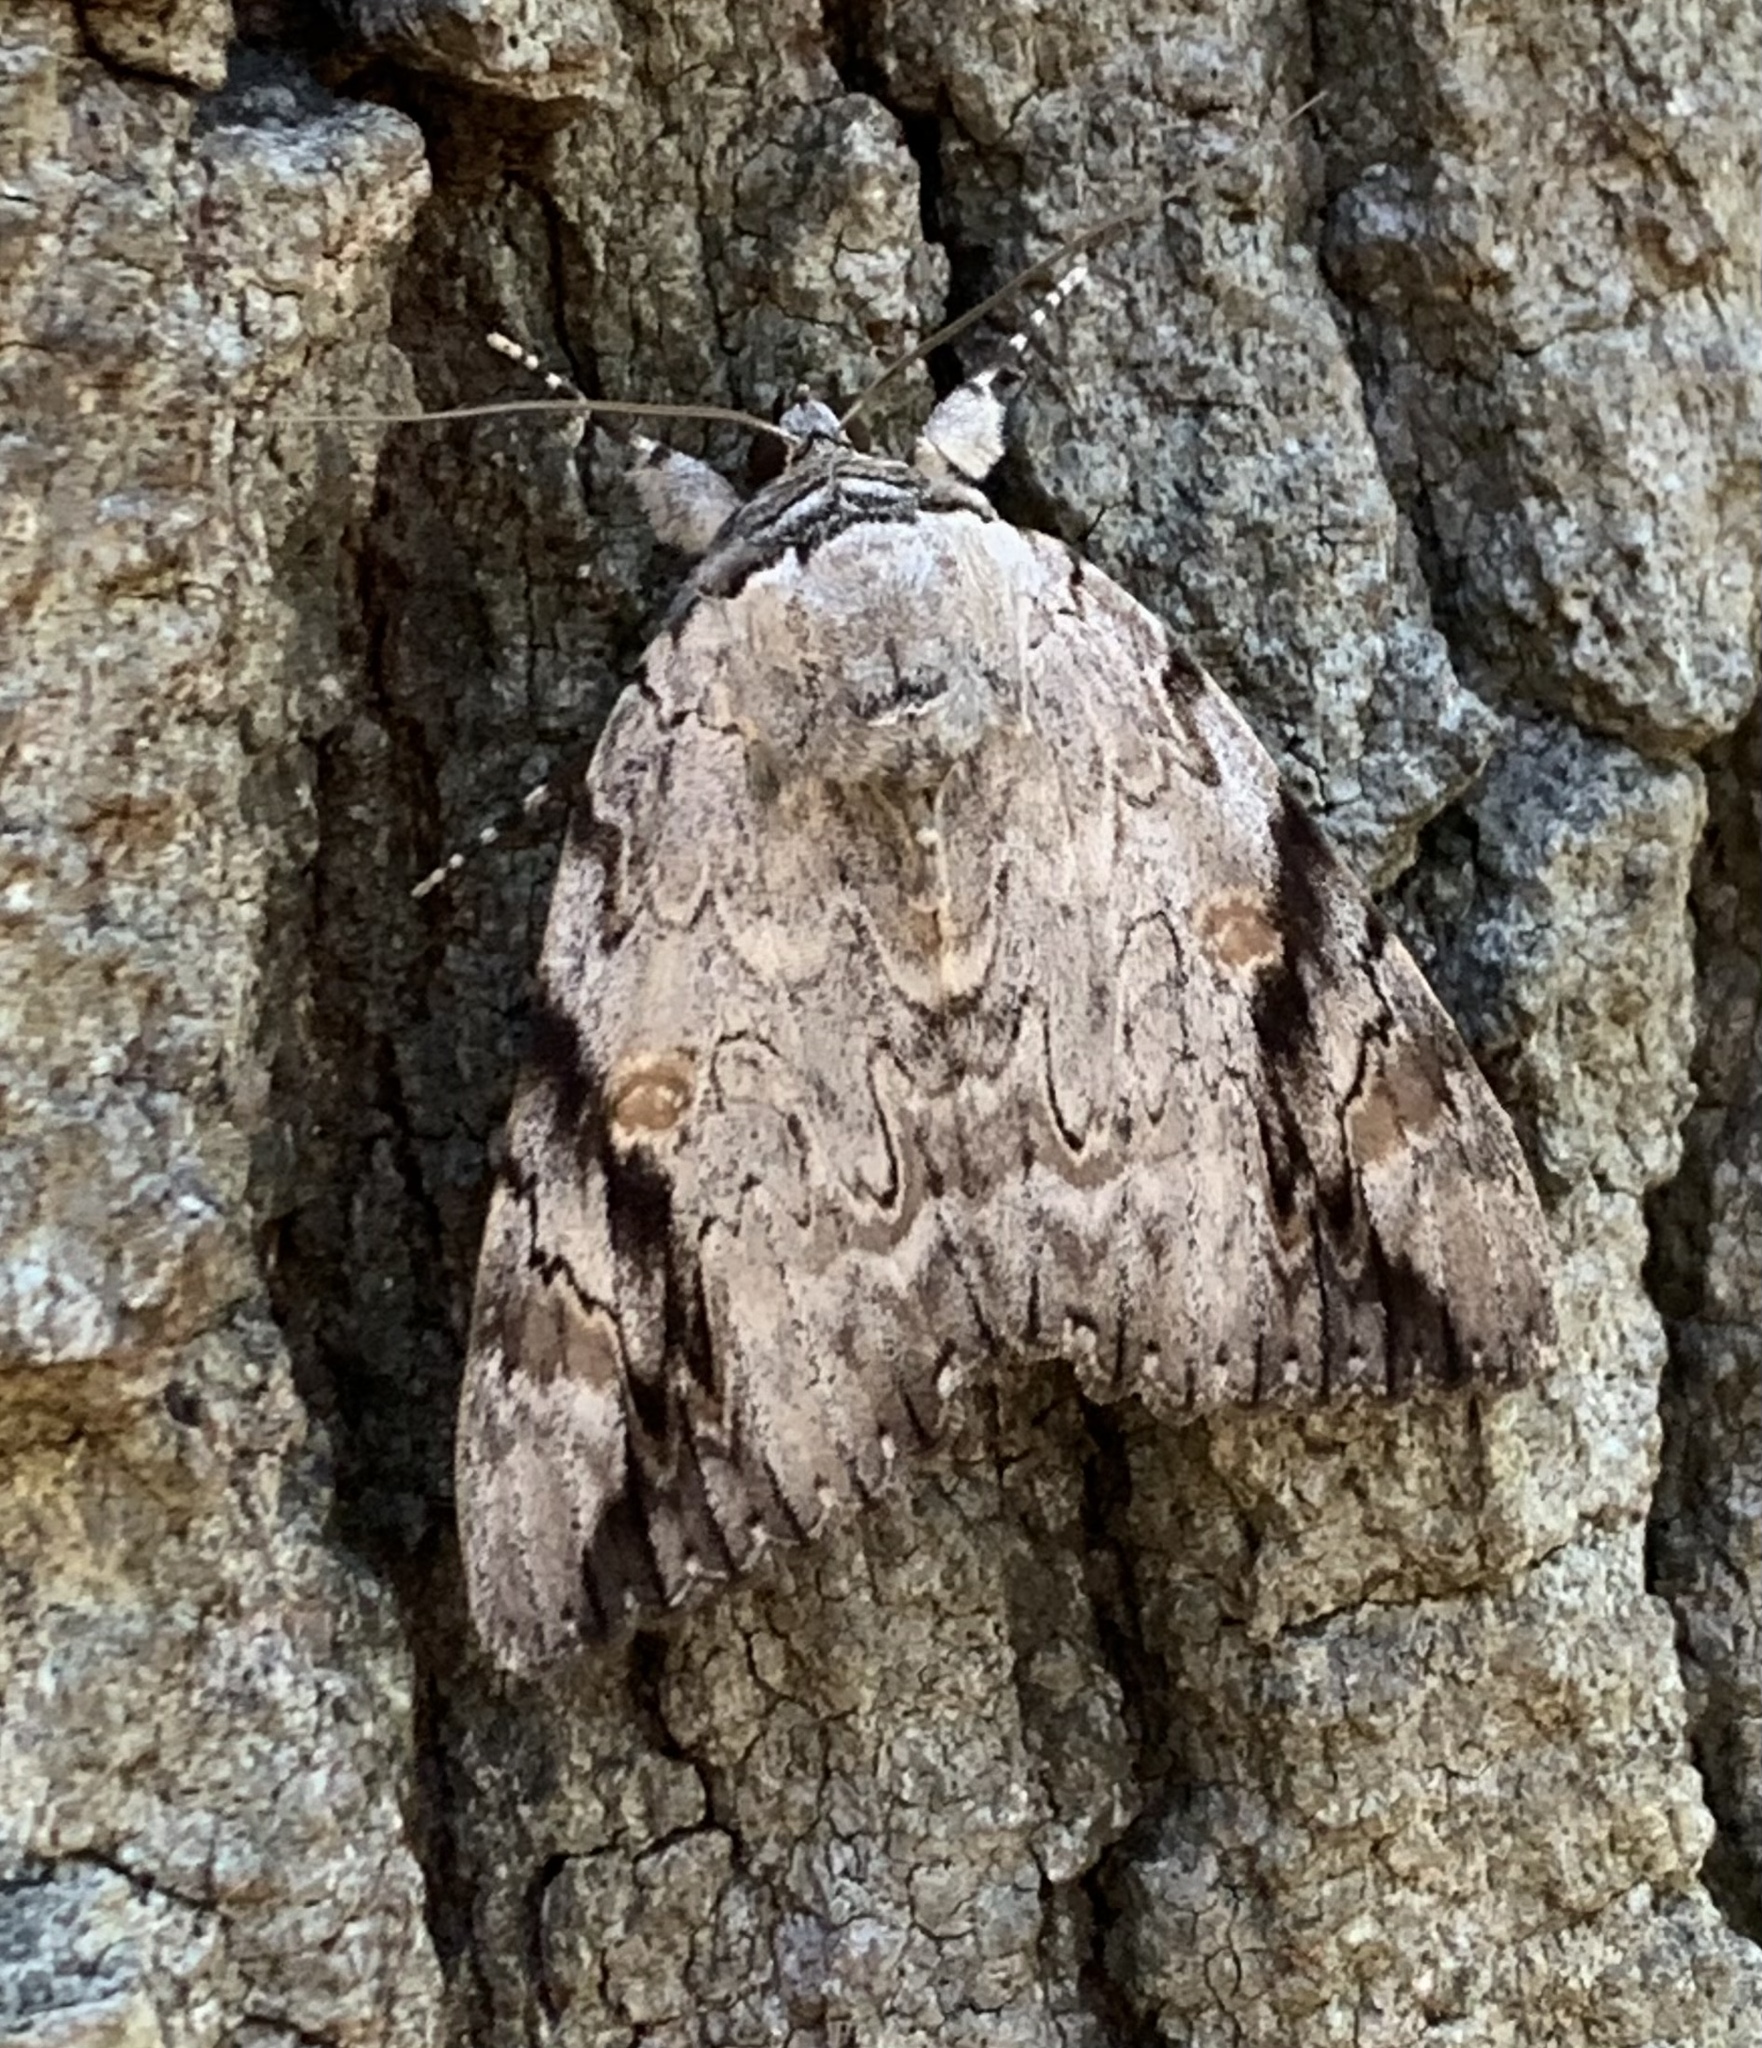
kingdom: Animalia
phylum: Arthropoda
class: Insecta
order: Lepidoptera
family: Erebidae
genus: Catocala
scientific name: Catocala maestosa
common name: Sad underwing
